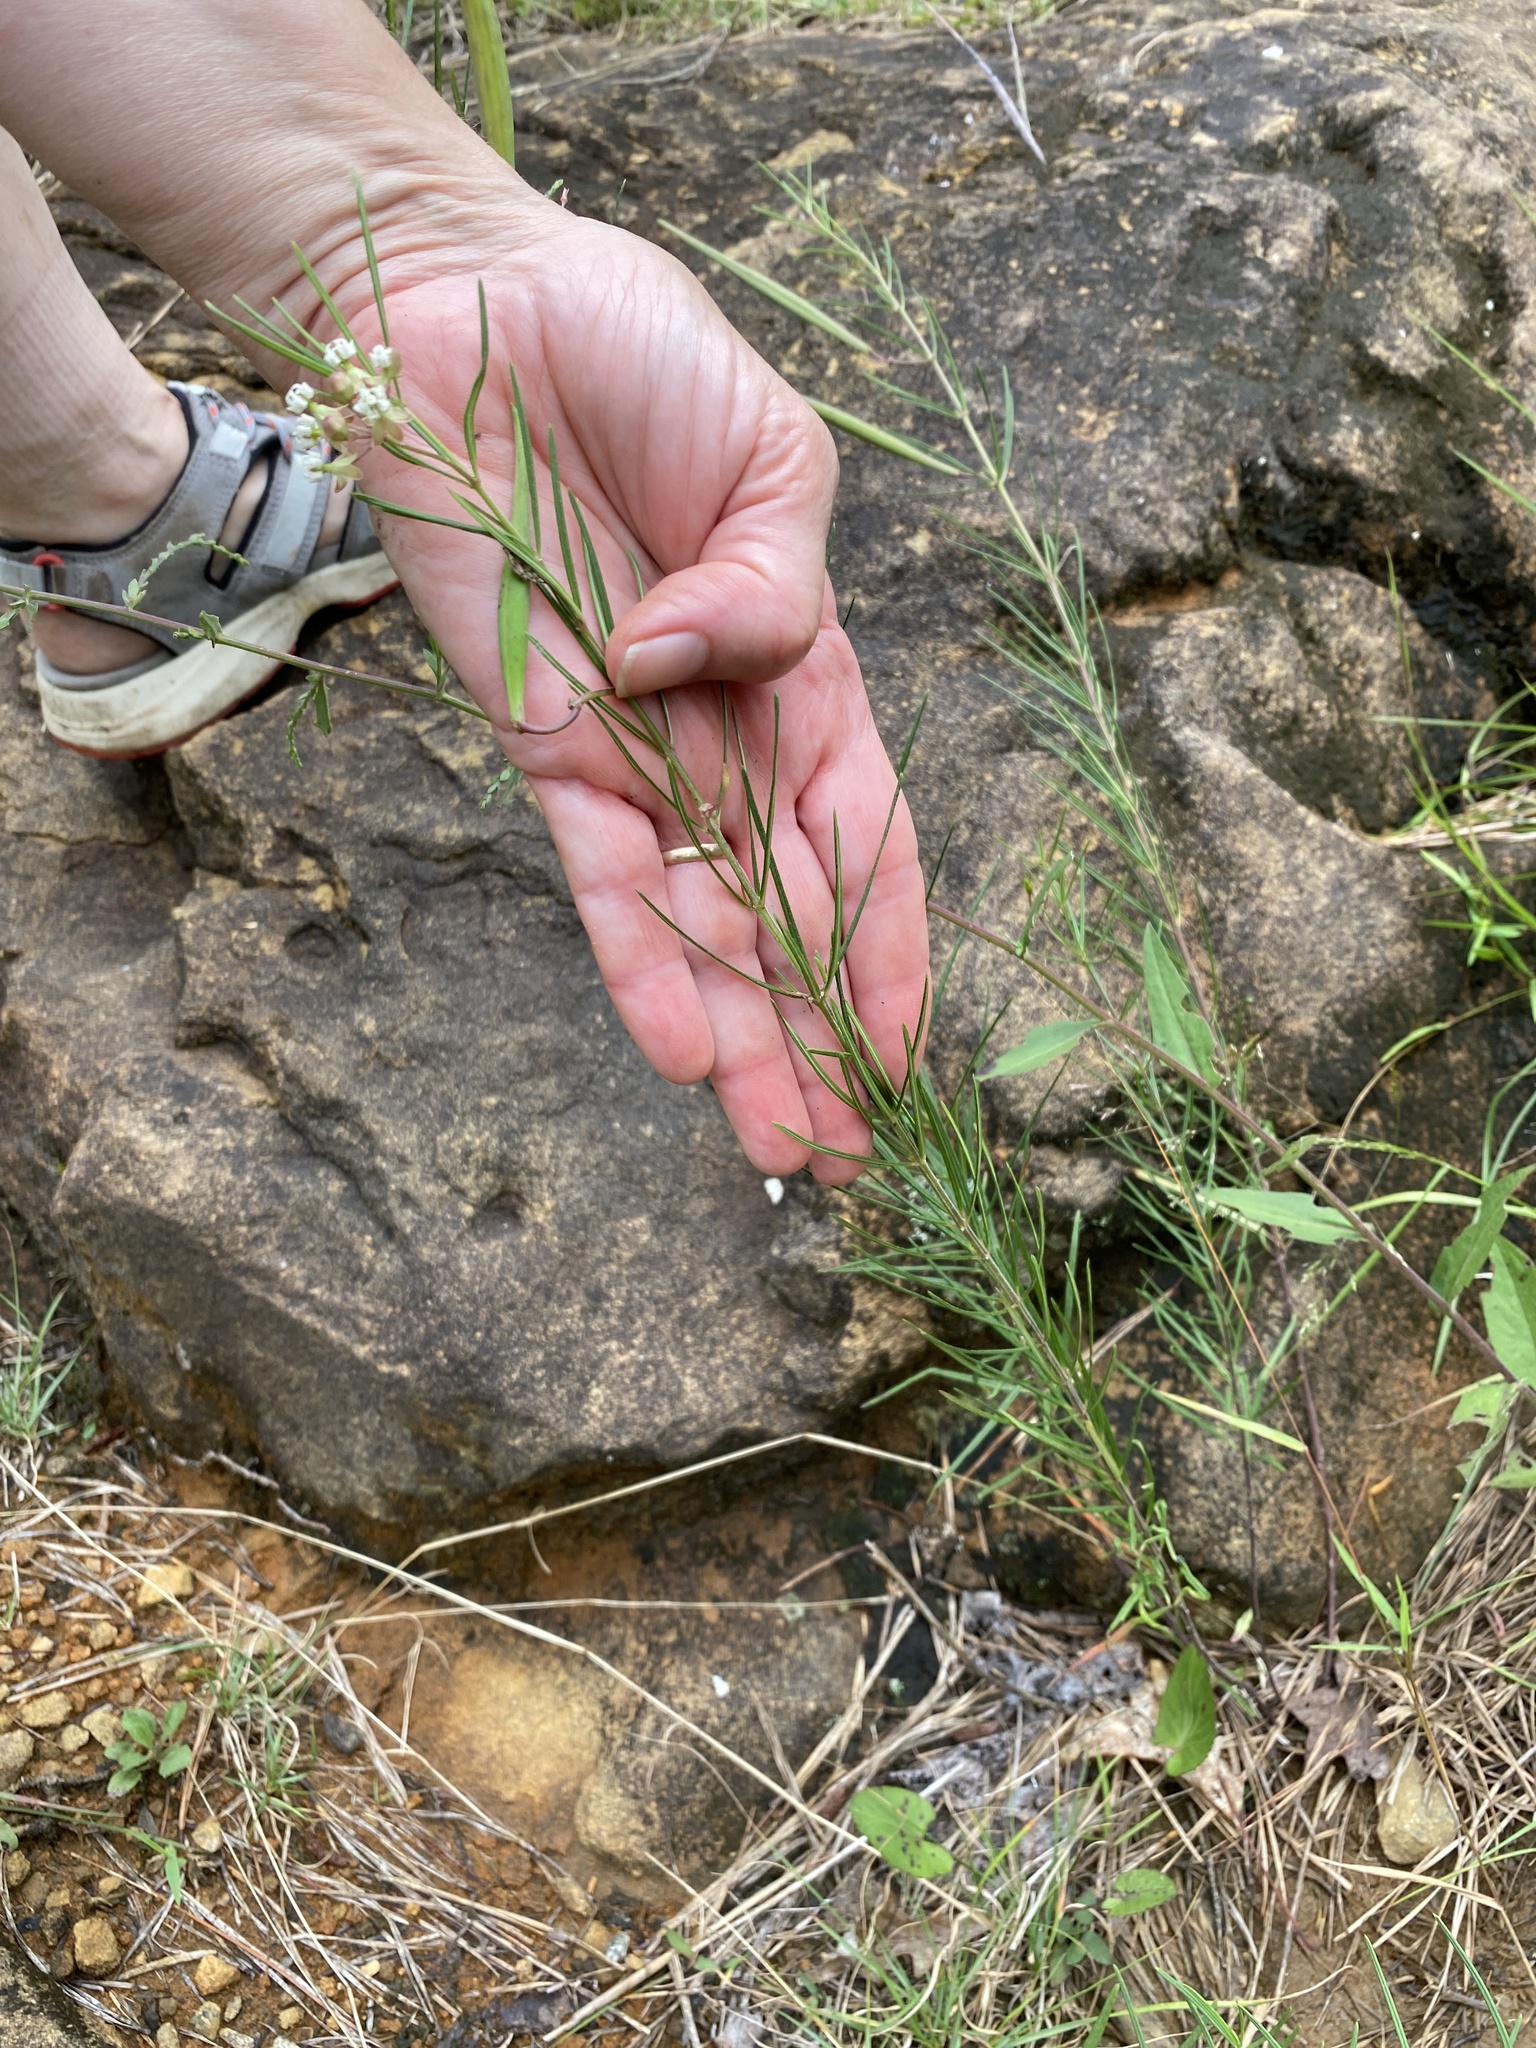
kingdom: Plantae
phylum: Tracheophyta
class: Magnoliopsida
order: Gentianales
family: Apocynaceae
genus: Asclepias
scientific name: Asclepias verticillata
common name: Eastern whorled milkweed
